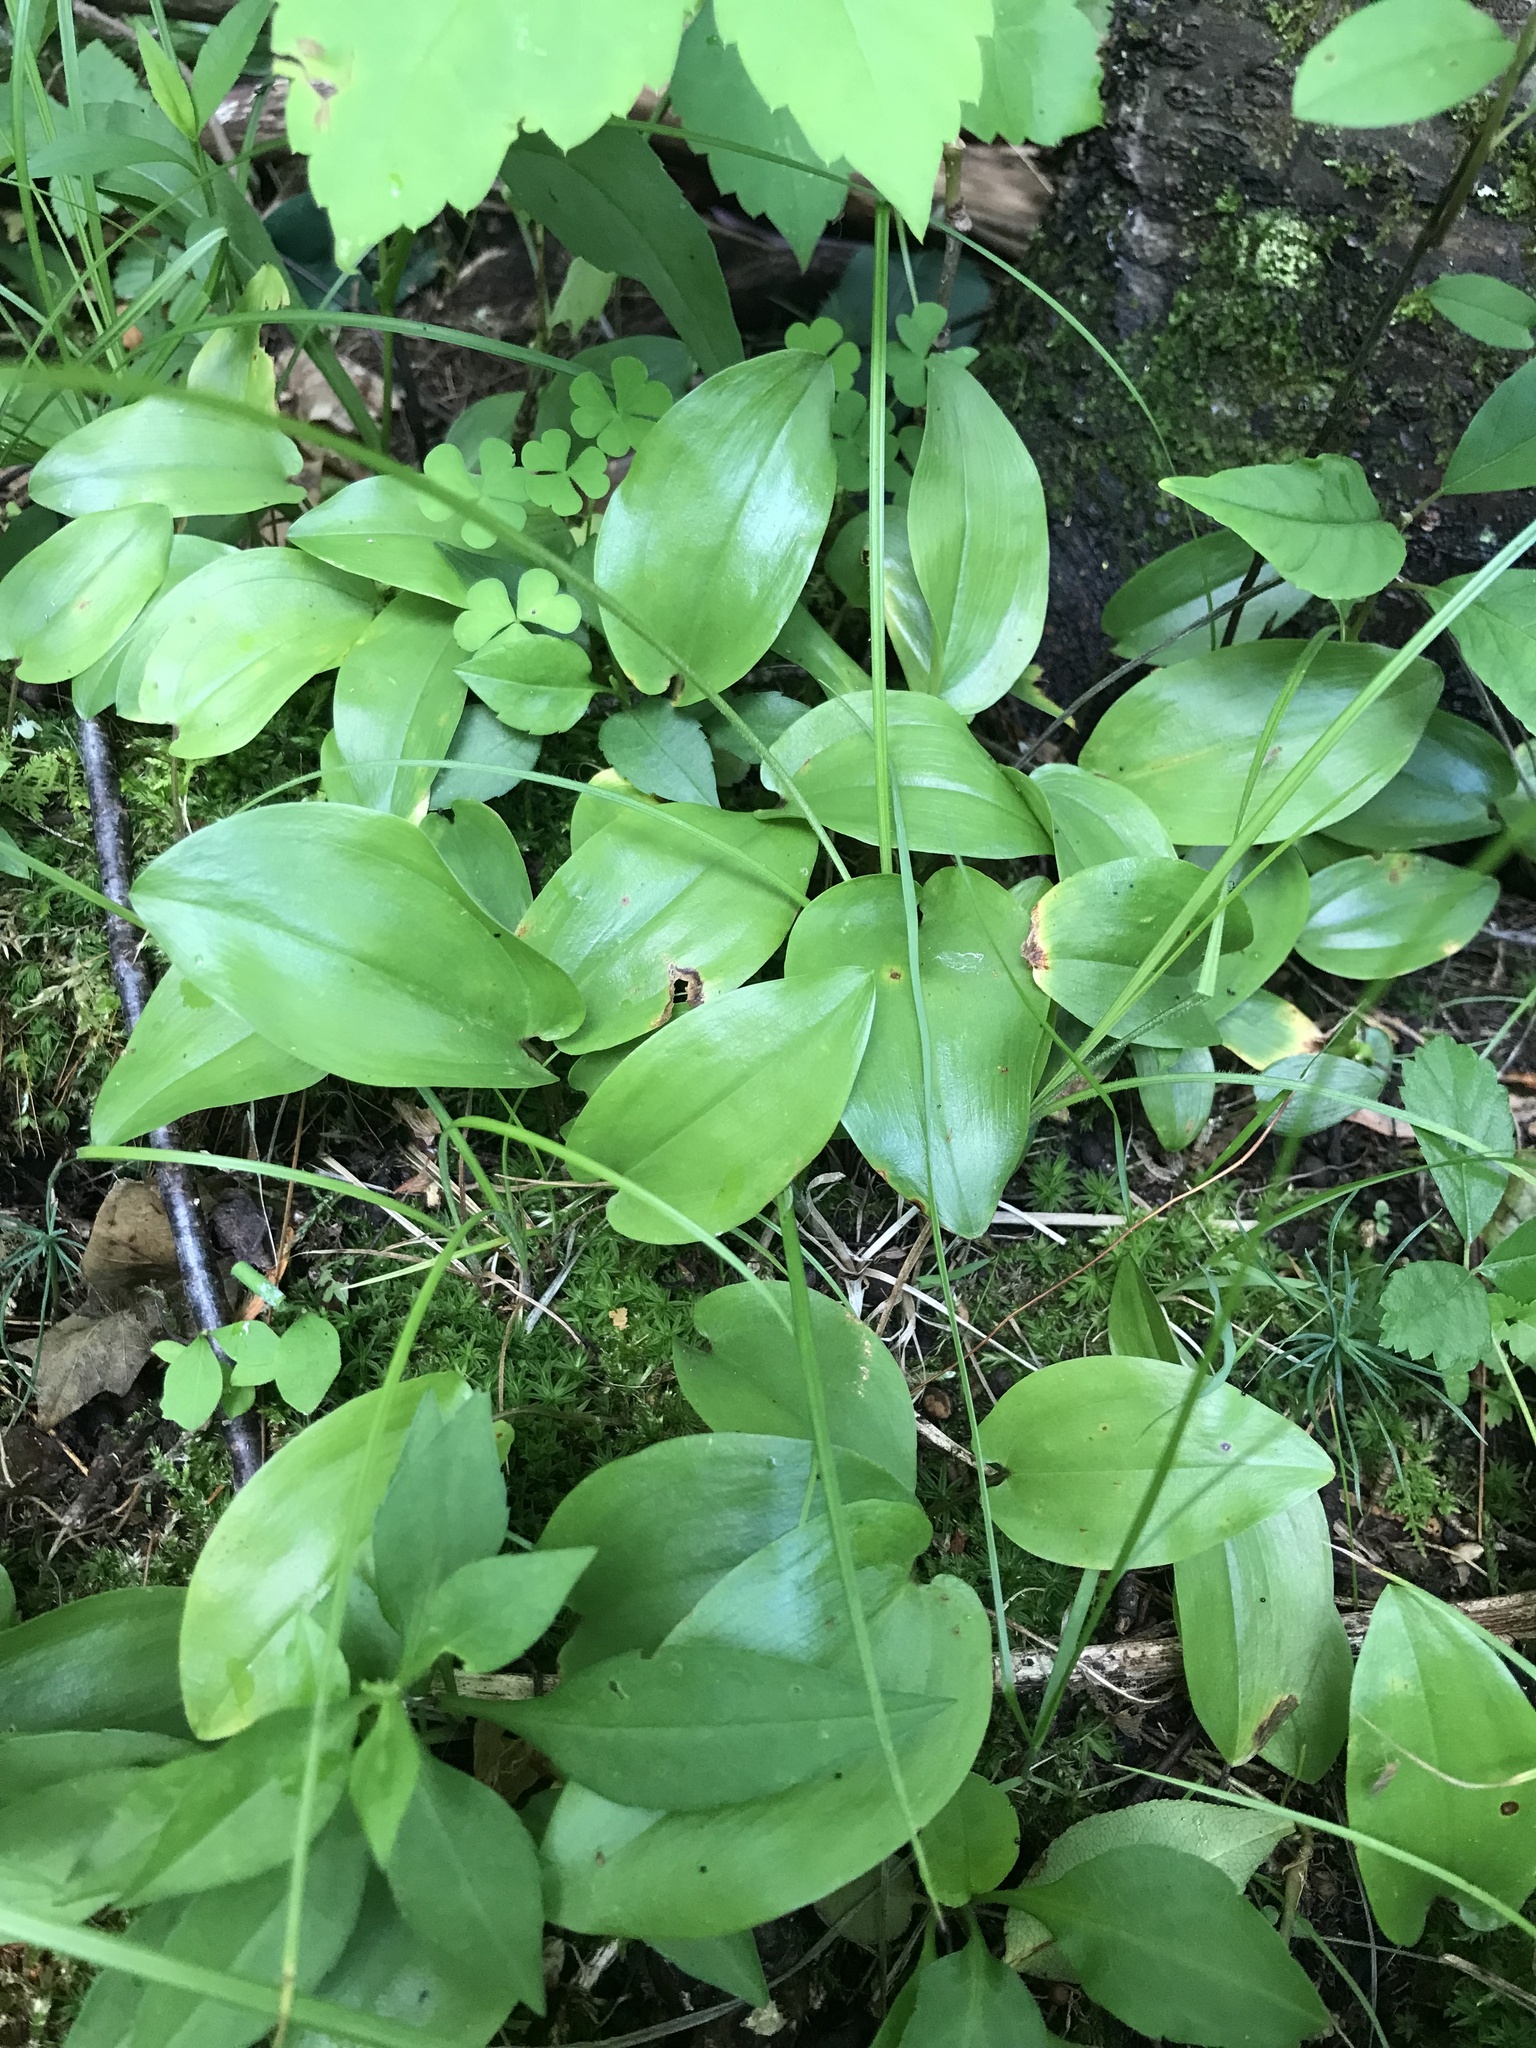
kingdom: Plantae
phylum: Tracheophyta
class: Liliopsida
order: Asparagales
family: Asparagaceae
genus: Maianthemum
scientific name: Maianthemum canadense
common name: False lily-of-the-valley
